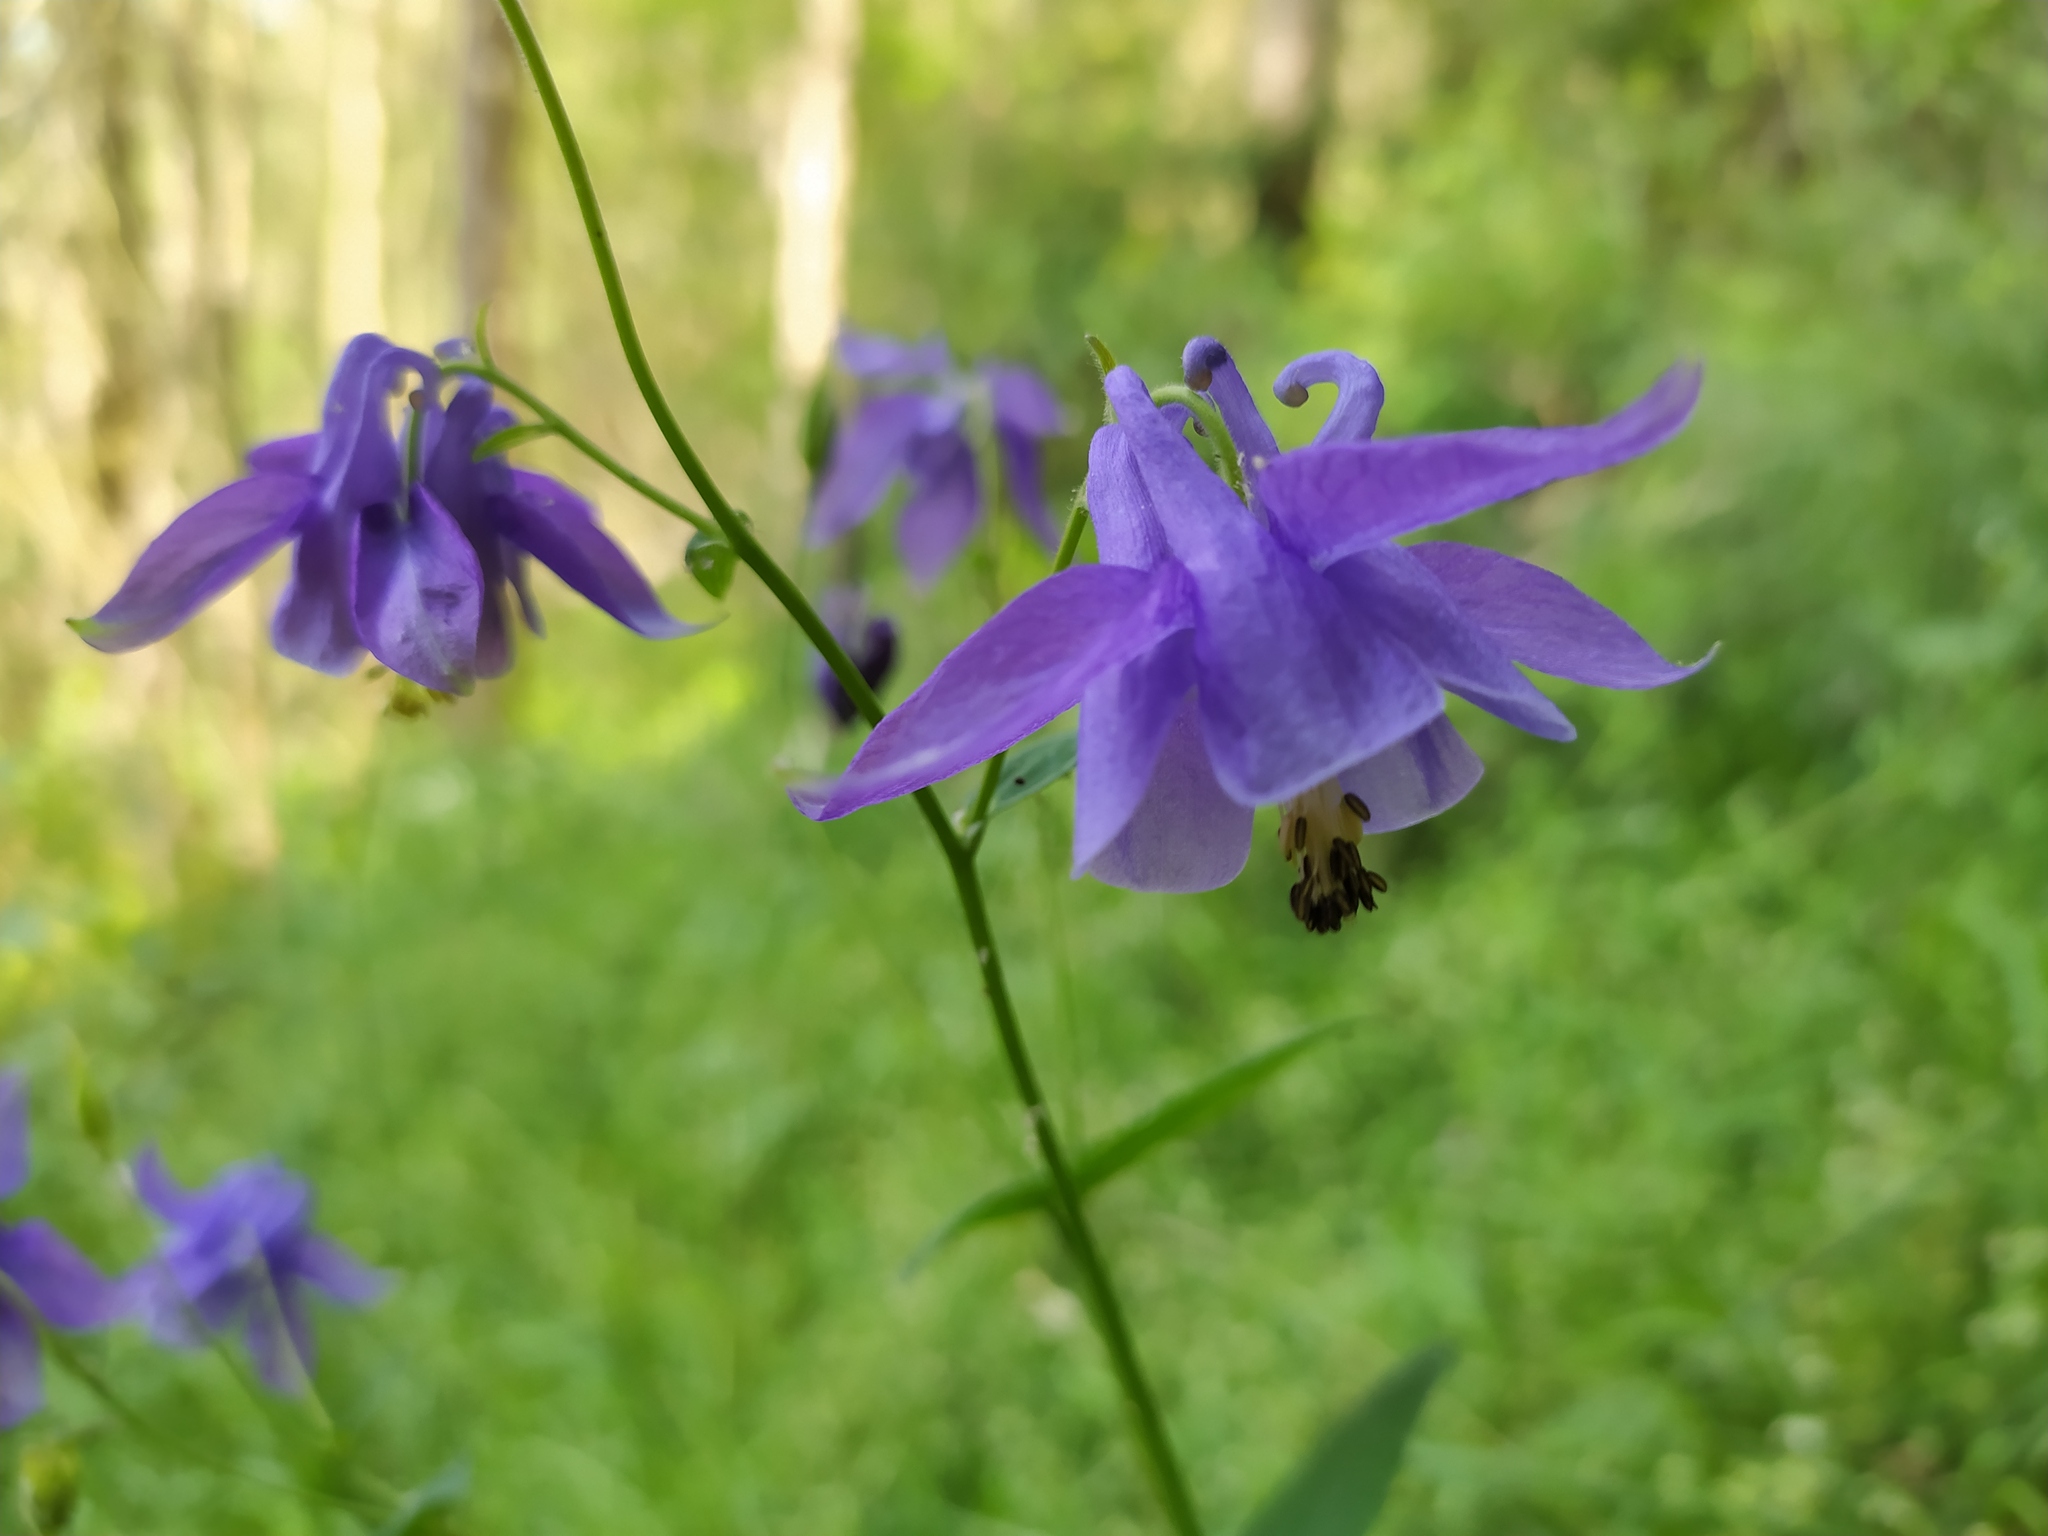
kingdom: Plantae
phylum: Tracheophyta
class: Magnoliopsida
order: Ranunculales
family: Ranunculaceae
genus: Aquilegia
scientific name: Aquilegia vulgaris
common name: Columbine
